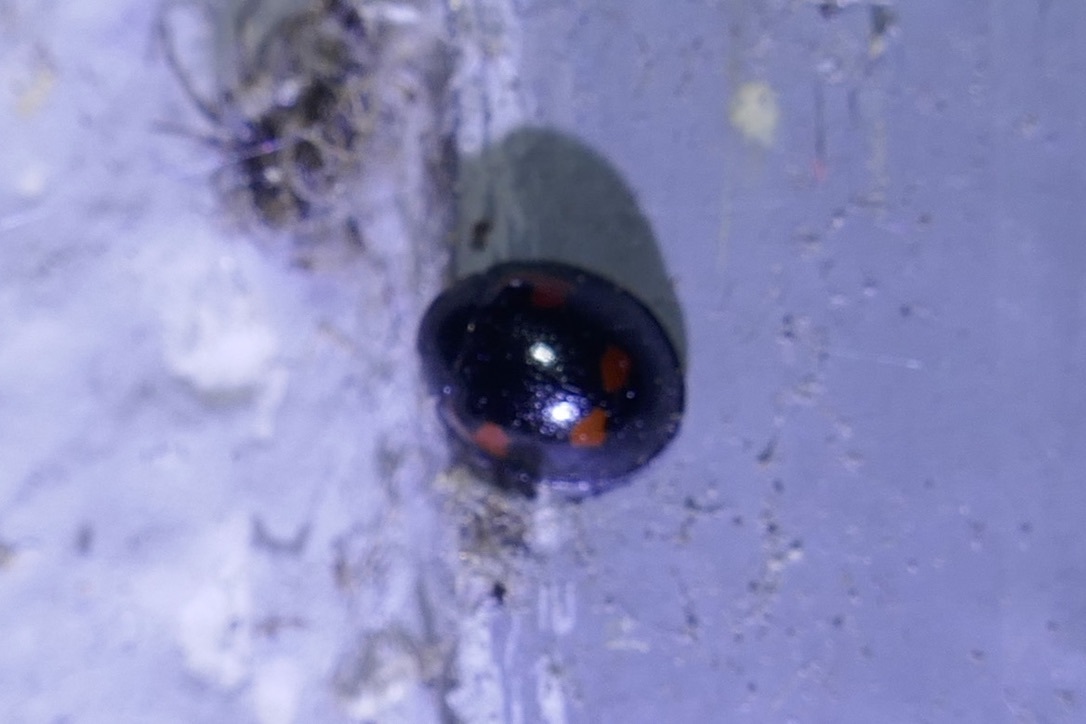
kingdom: Animalia
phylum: Arthropoda
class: Insecta
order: Coleoptera
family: Coccinellidae
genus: Brumus
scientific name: Brumus quadripustulatus
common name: Ladybird beetle
